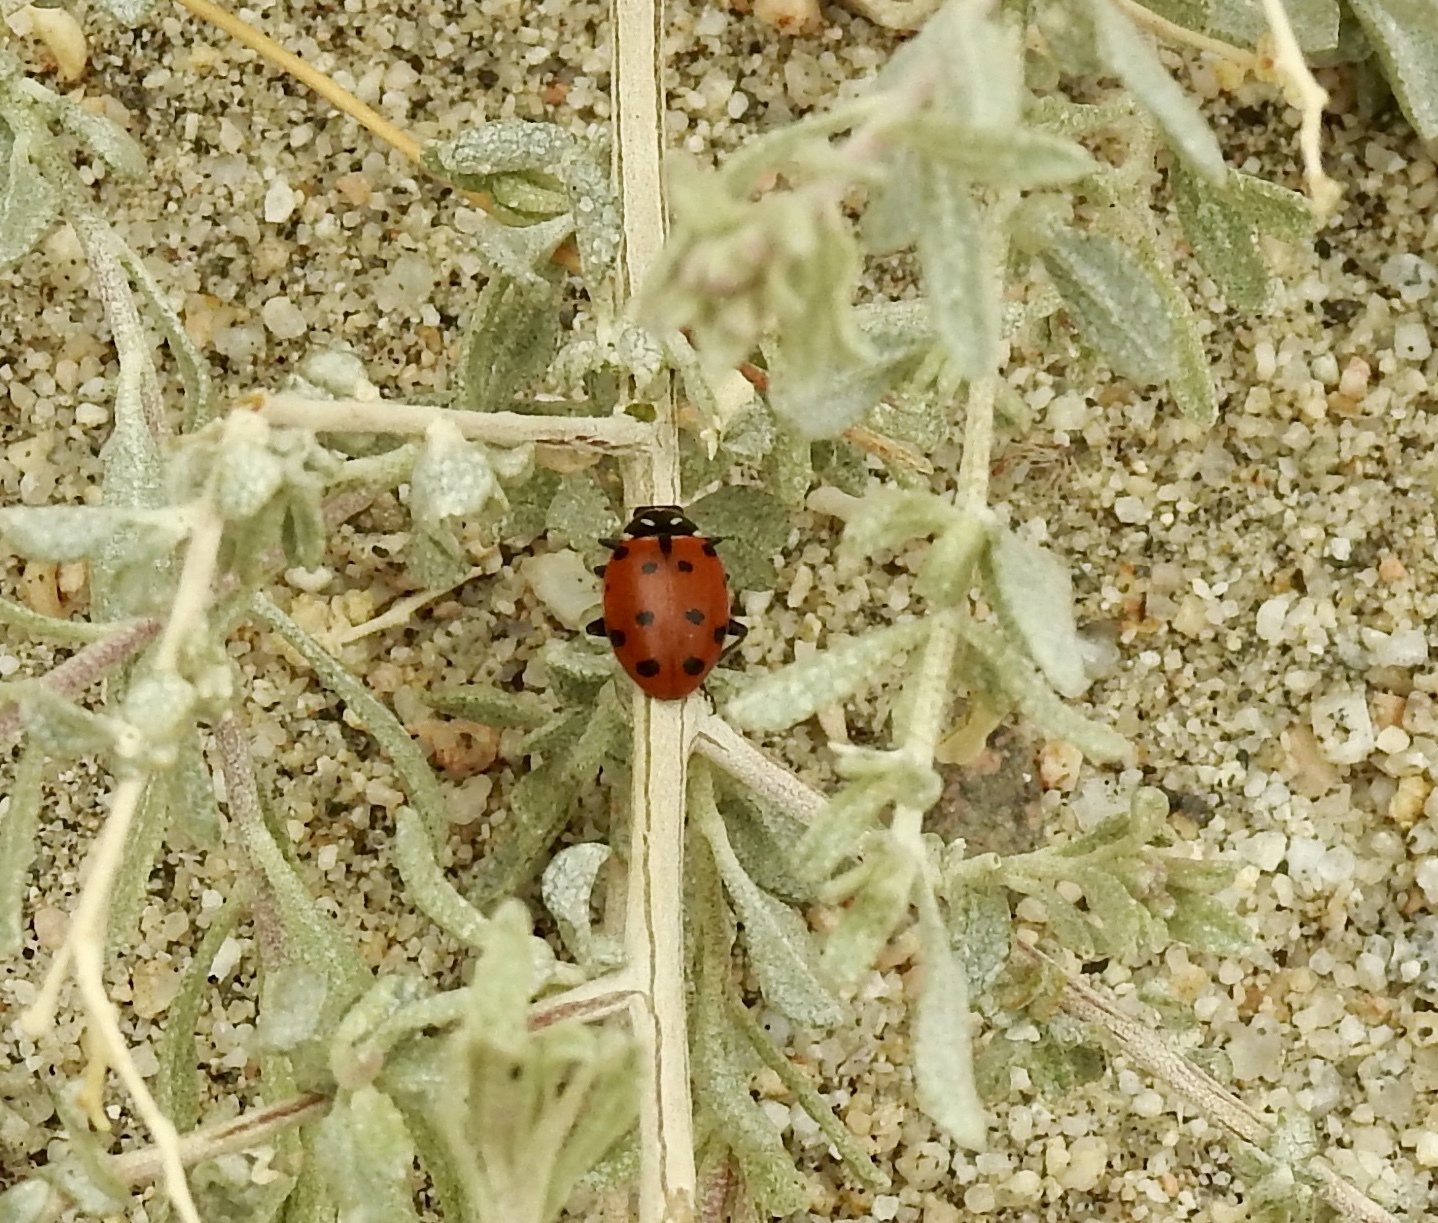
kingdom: Animalia
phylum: Arthropoda
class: Insecta
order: Coleoptera
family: Coccinellidae
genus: Hippodamia
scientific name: Hippodamia convergens
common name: Convergent lady beetle
